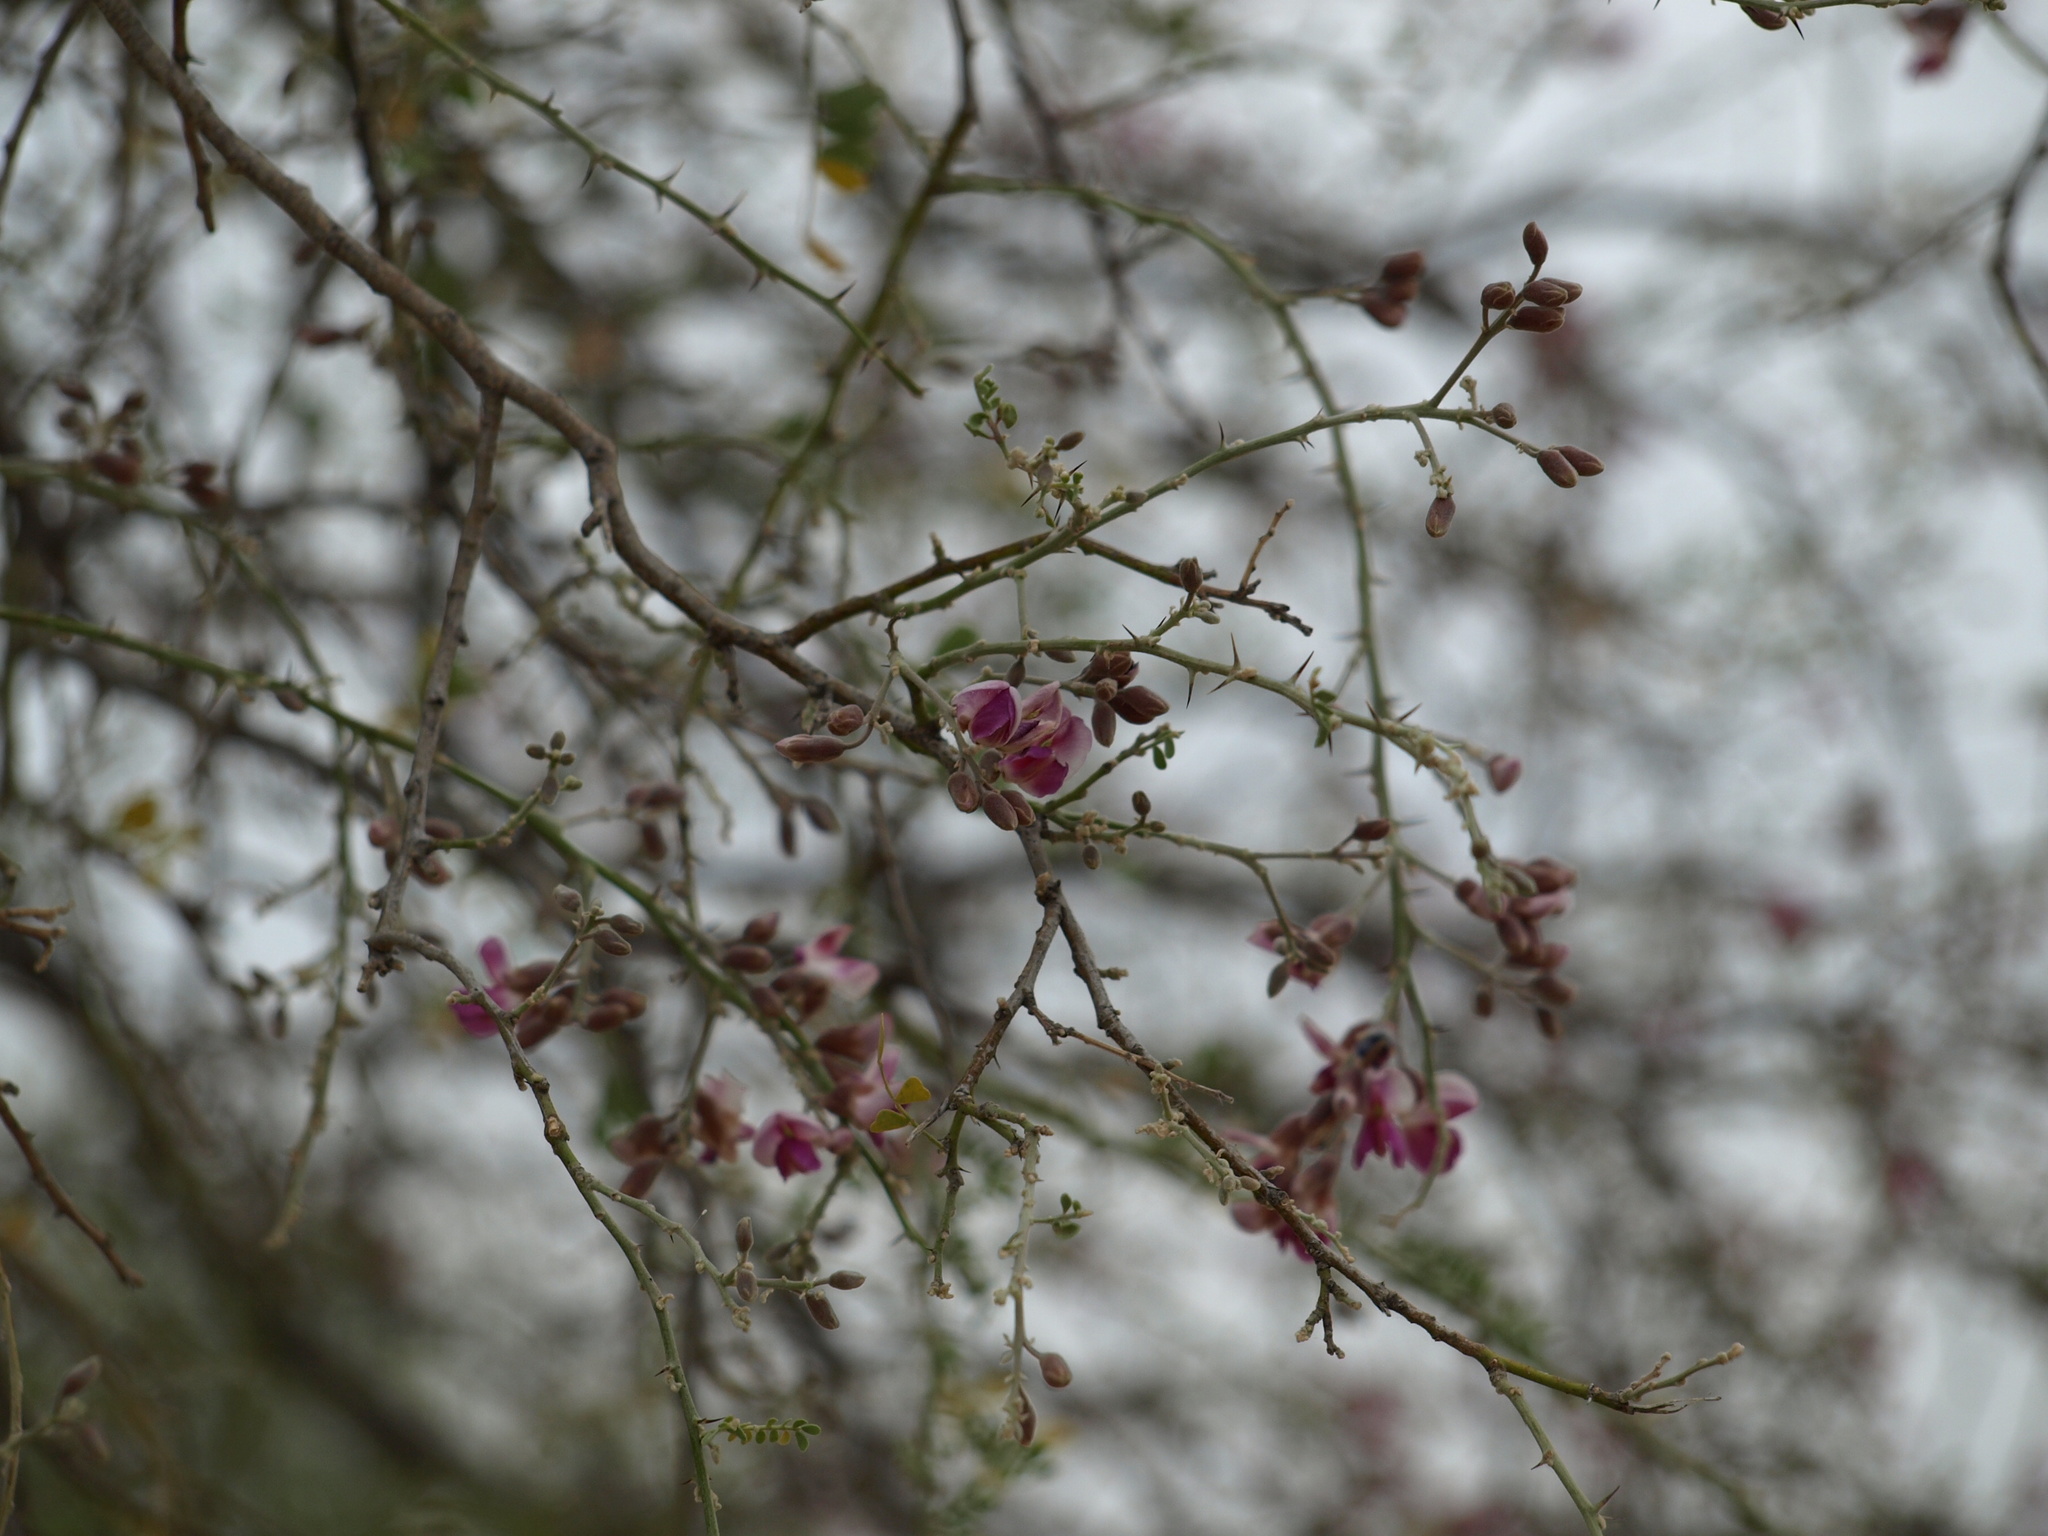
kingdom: Plantae
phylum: Tracheophyta
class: Magnoliopsida
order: Fabales
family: Fabaceae
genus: Olneya
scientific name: Olneya tesota
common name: Desert ironwood
